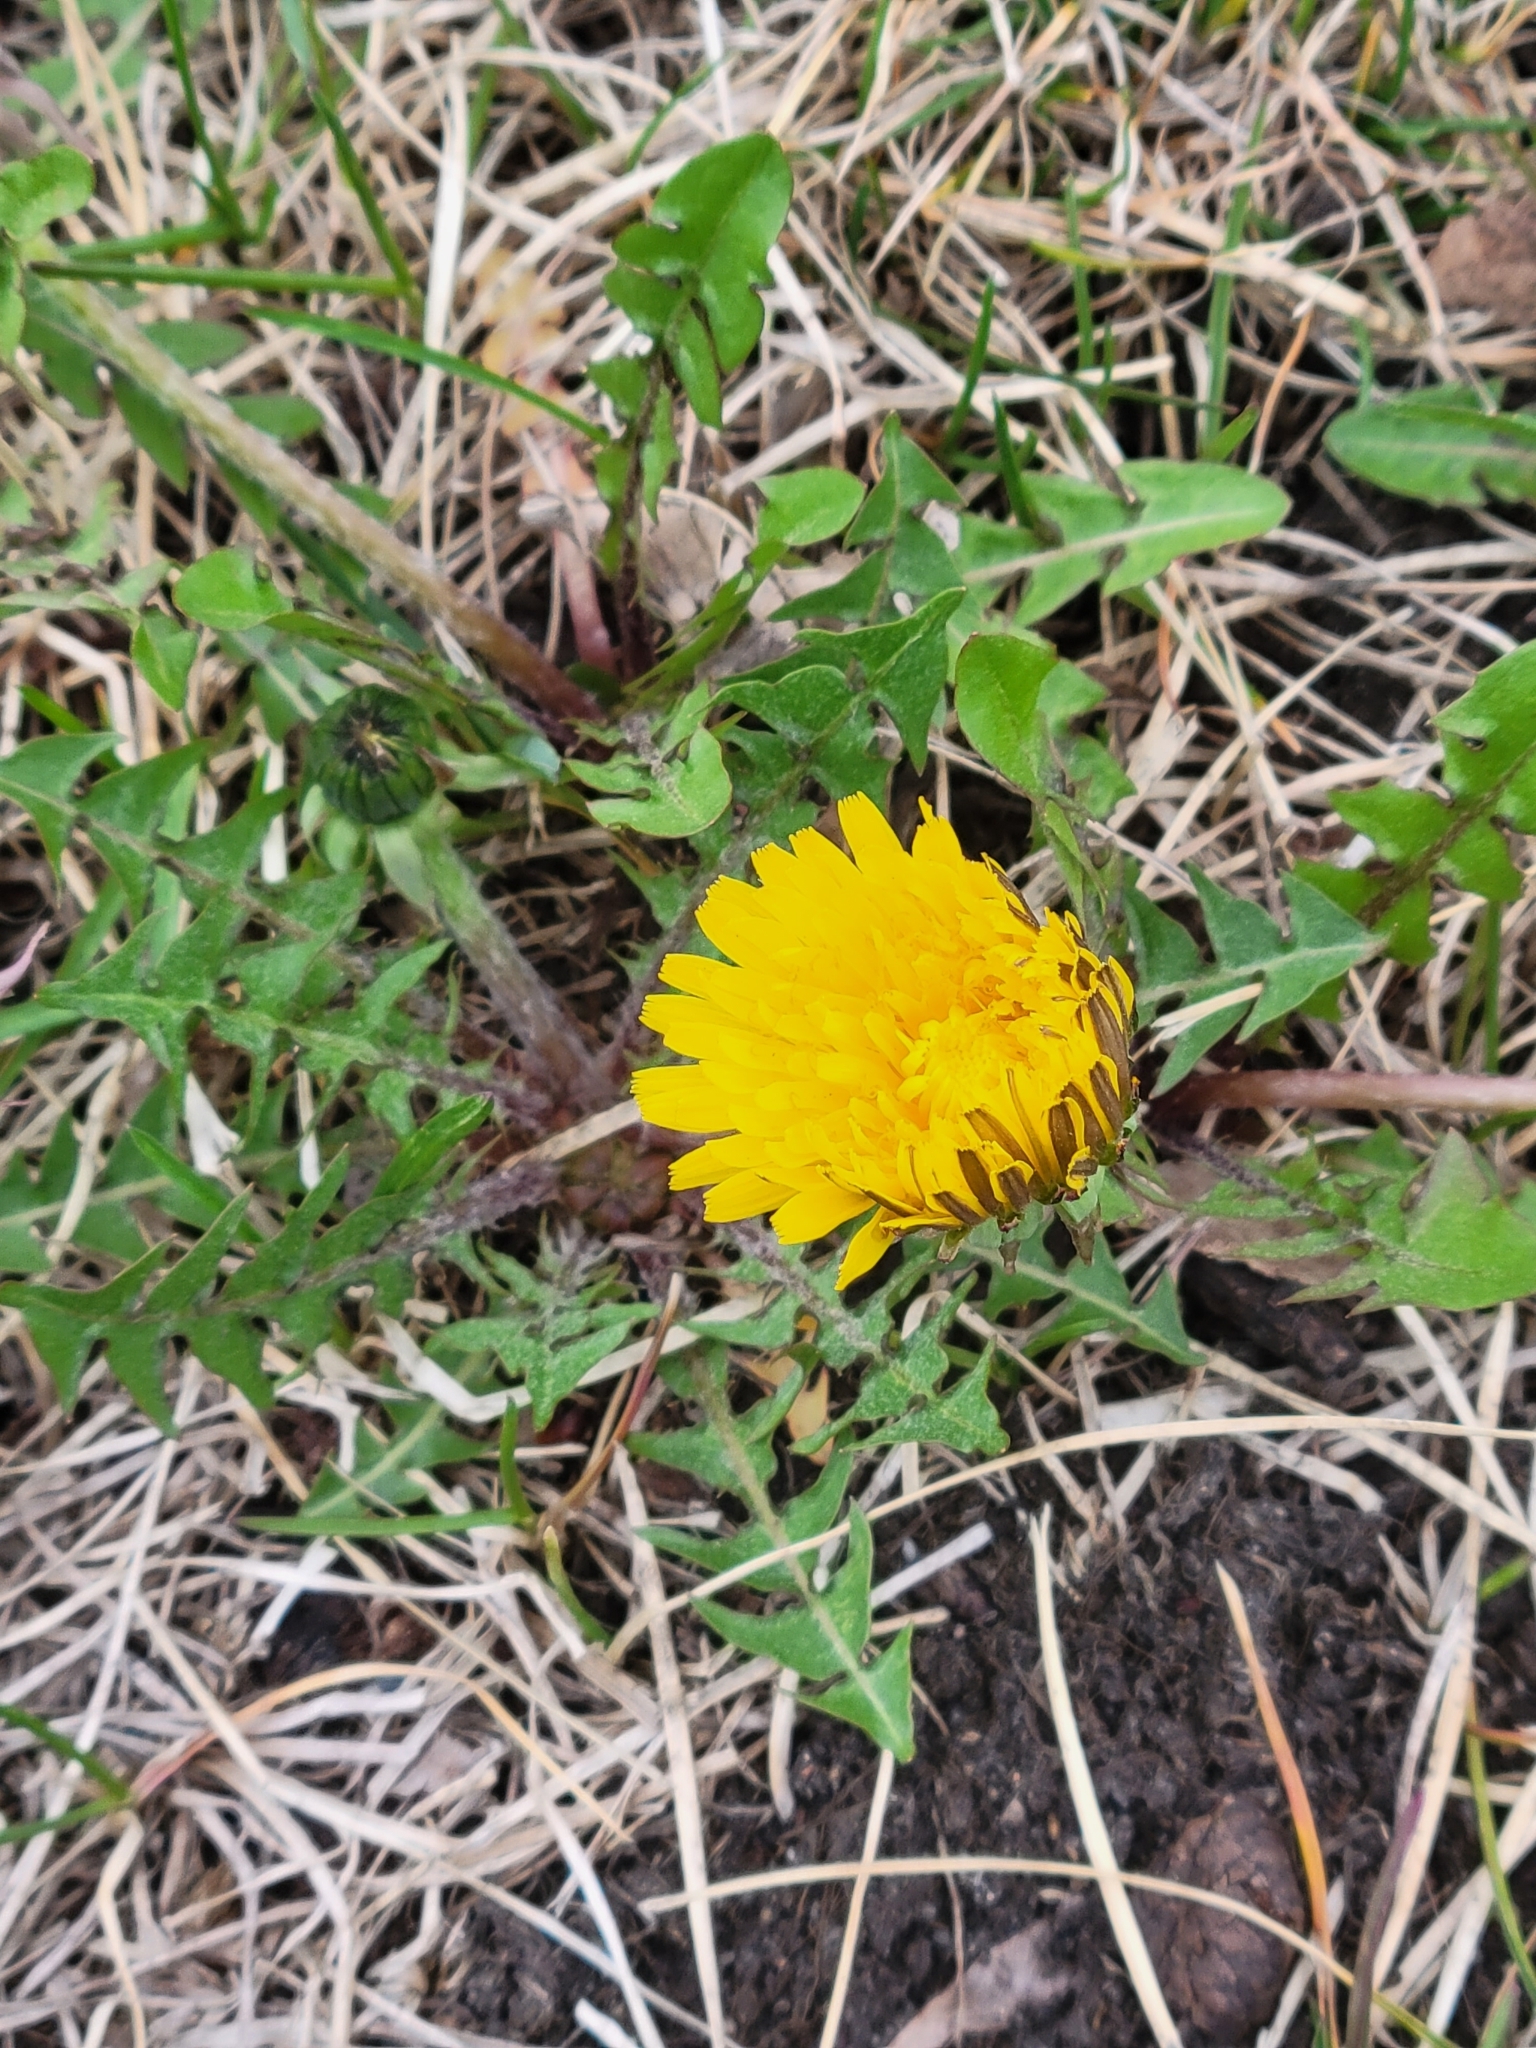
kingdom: Plantae
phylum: Tracheophyta
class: Magnoliopsida
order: Asterales
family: Asteraceae
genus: Taraxacum
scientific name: Taraxacum officinale
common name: Common dandelion
